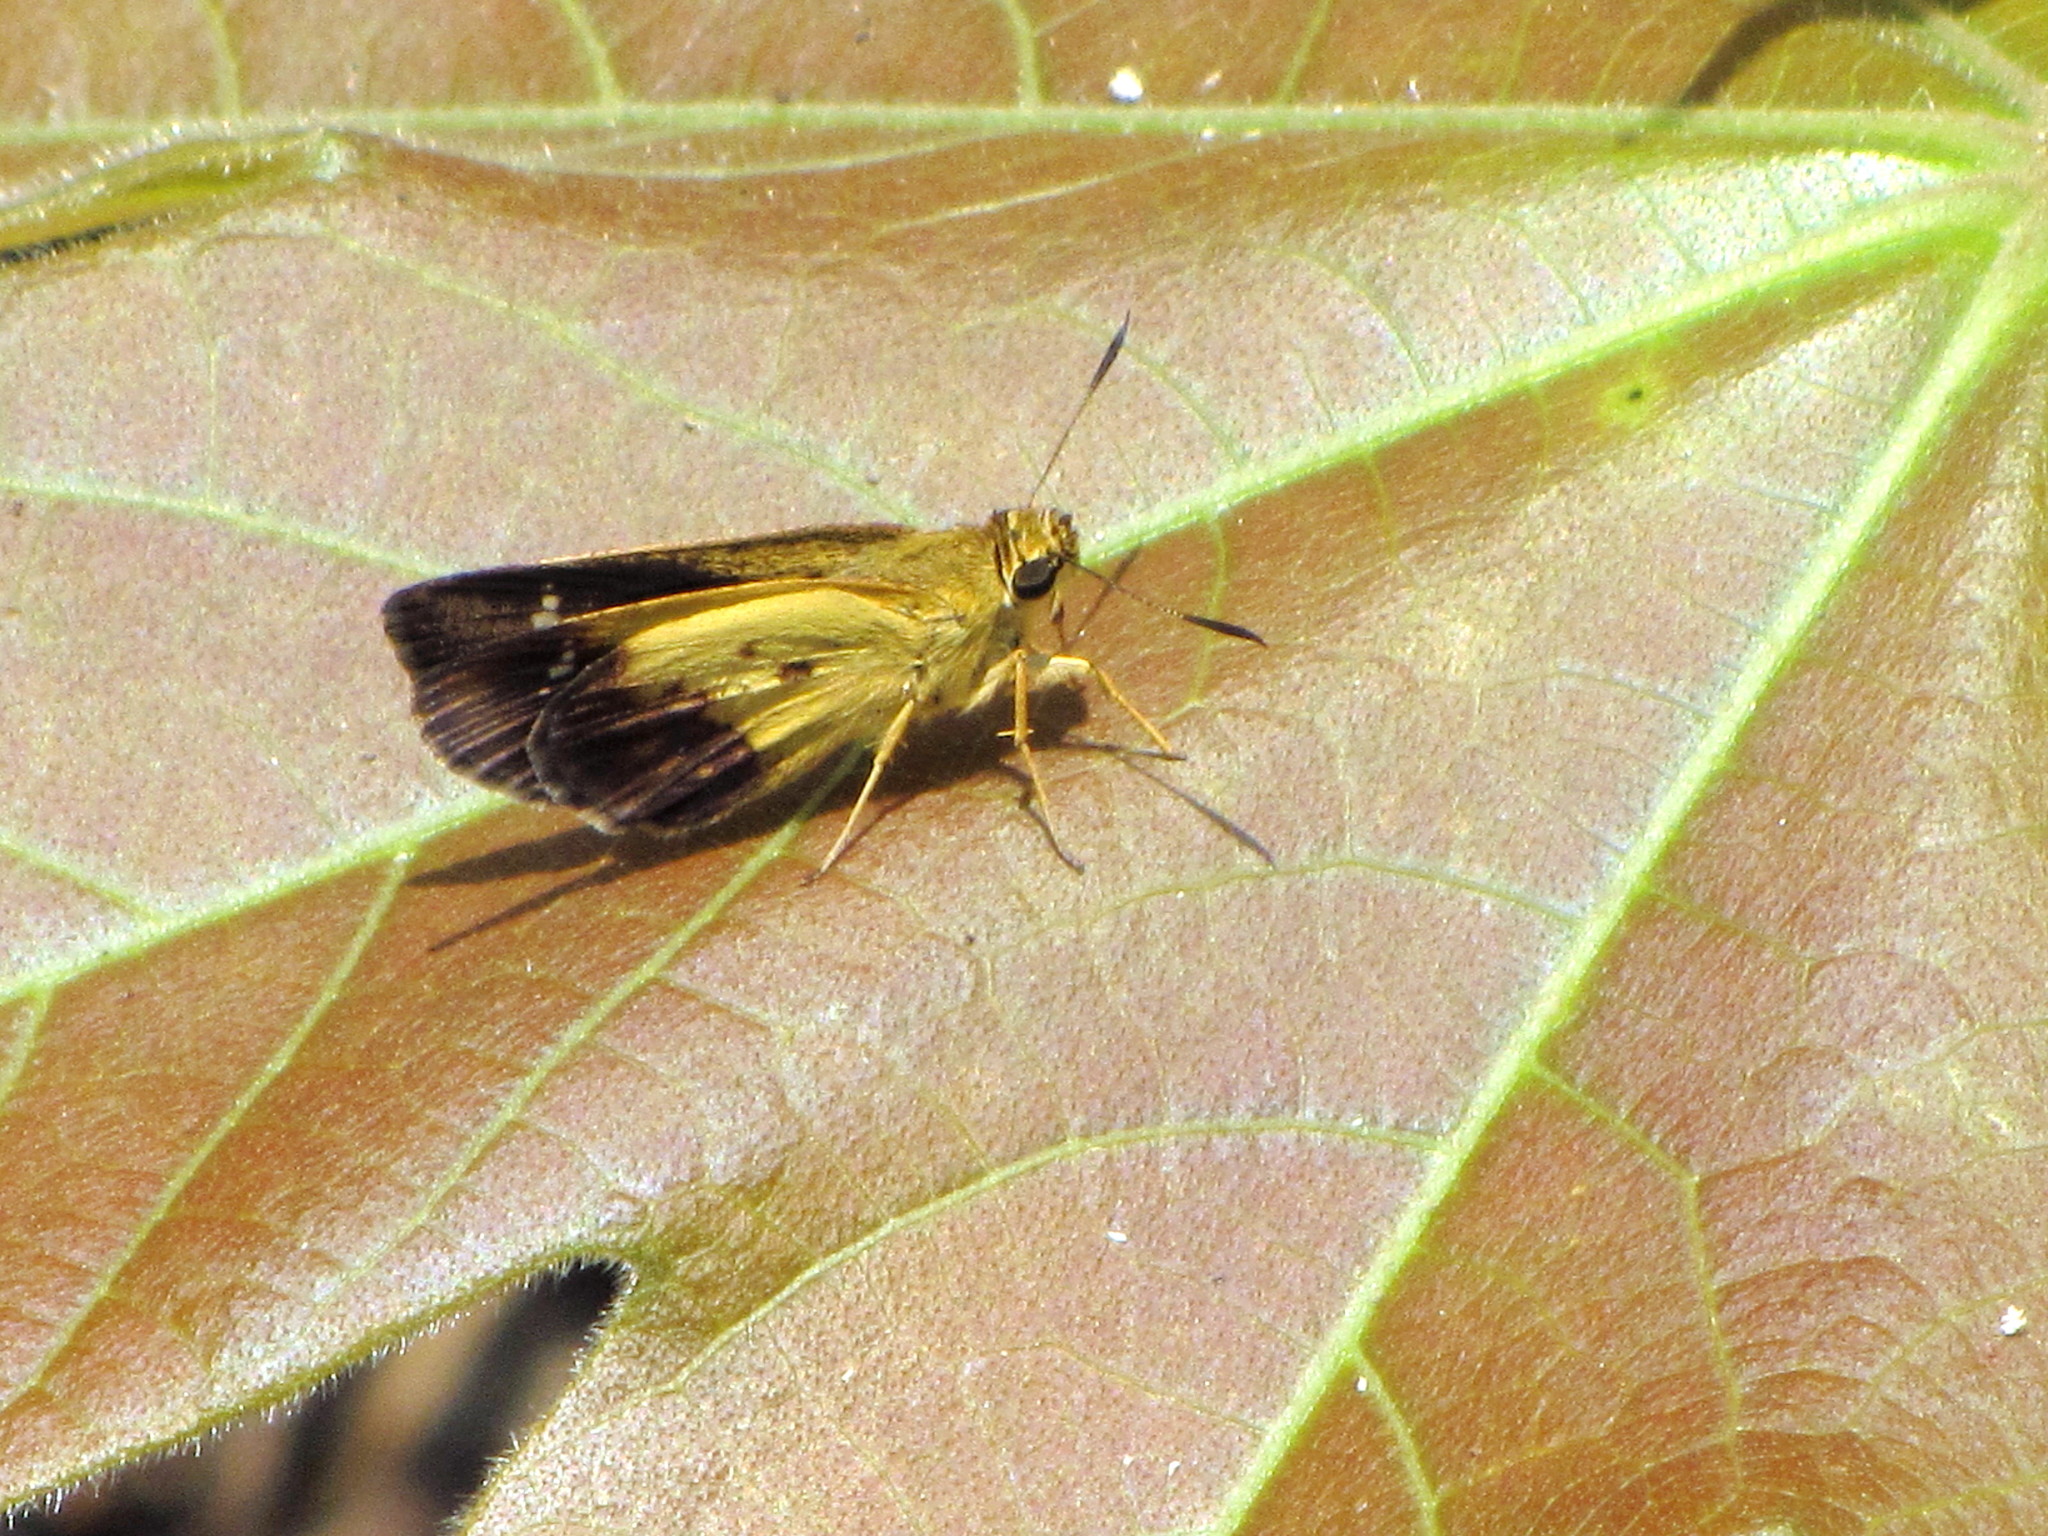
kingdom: Animalia
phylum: Arthropoda
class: Insecta
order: Lepidoptera
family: Hesperiidae
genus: Zographetus
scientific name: Zographetus satwa
